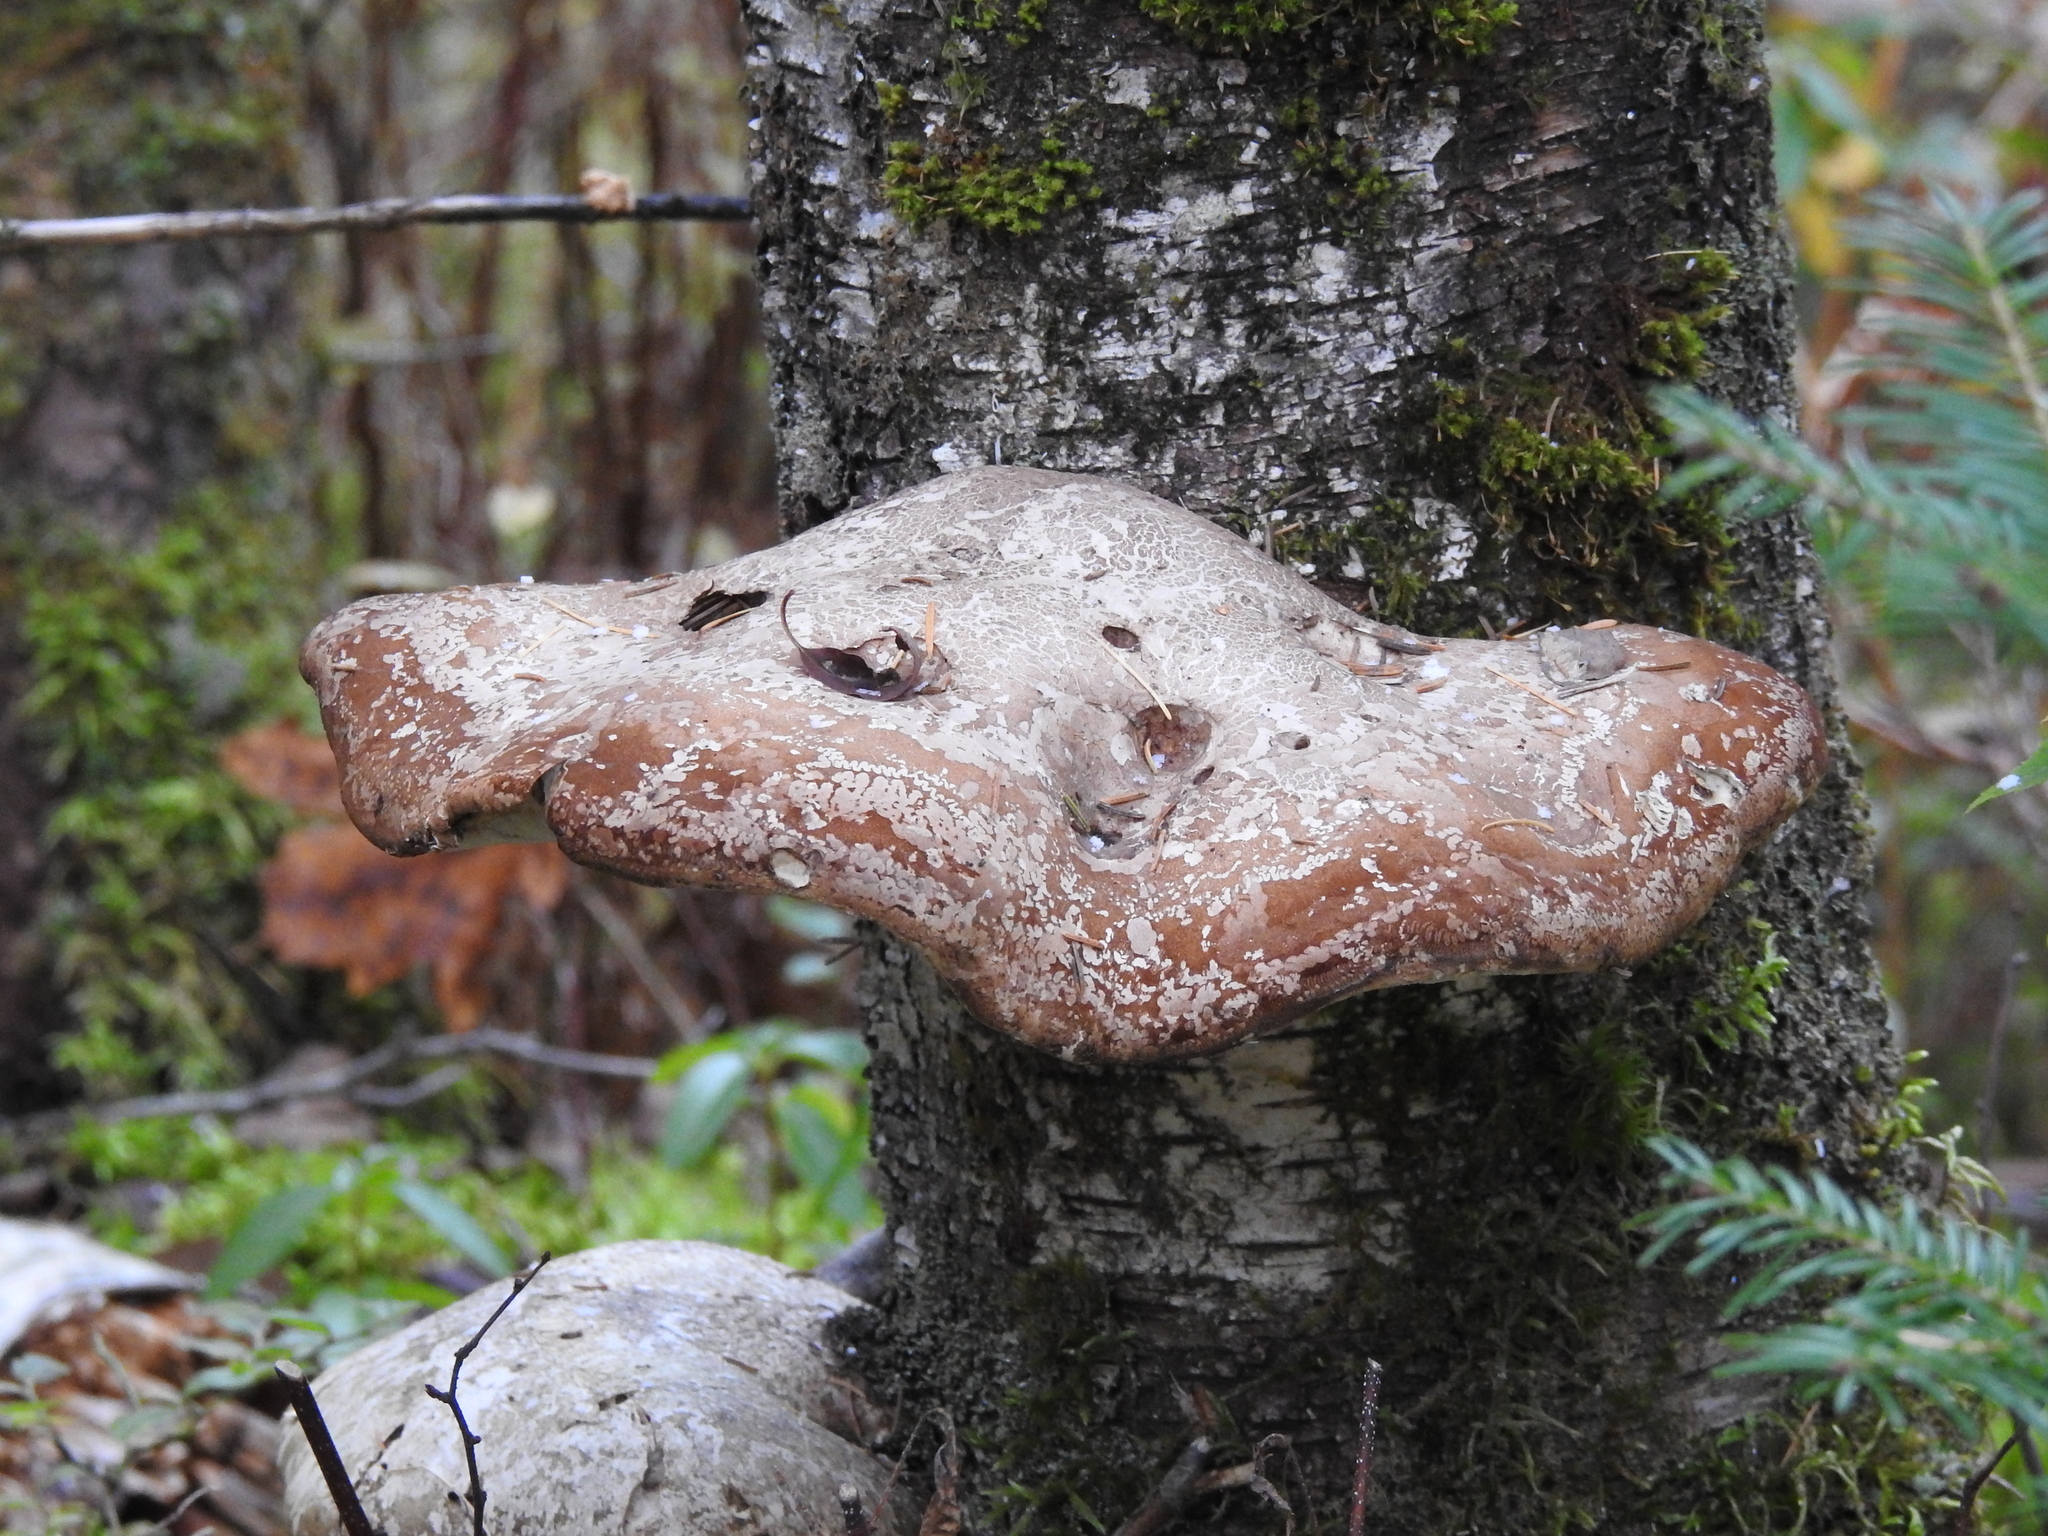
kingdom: Fungi
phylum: Basidiomycota
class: Agaricomycetes
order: Polyporales
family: Fomitopsidaceae
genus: Fomitopsis
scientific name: Fomitopsis betulina
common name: Birch polypore
